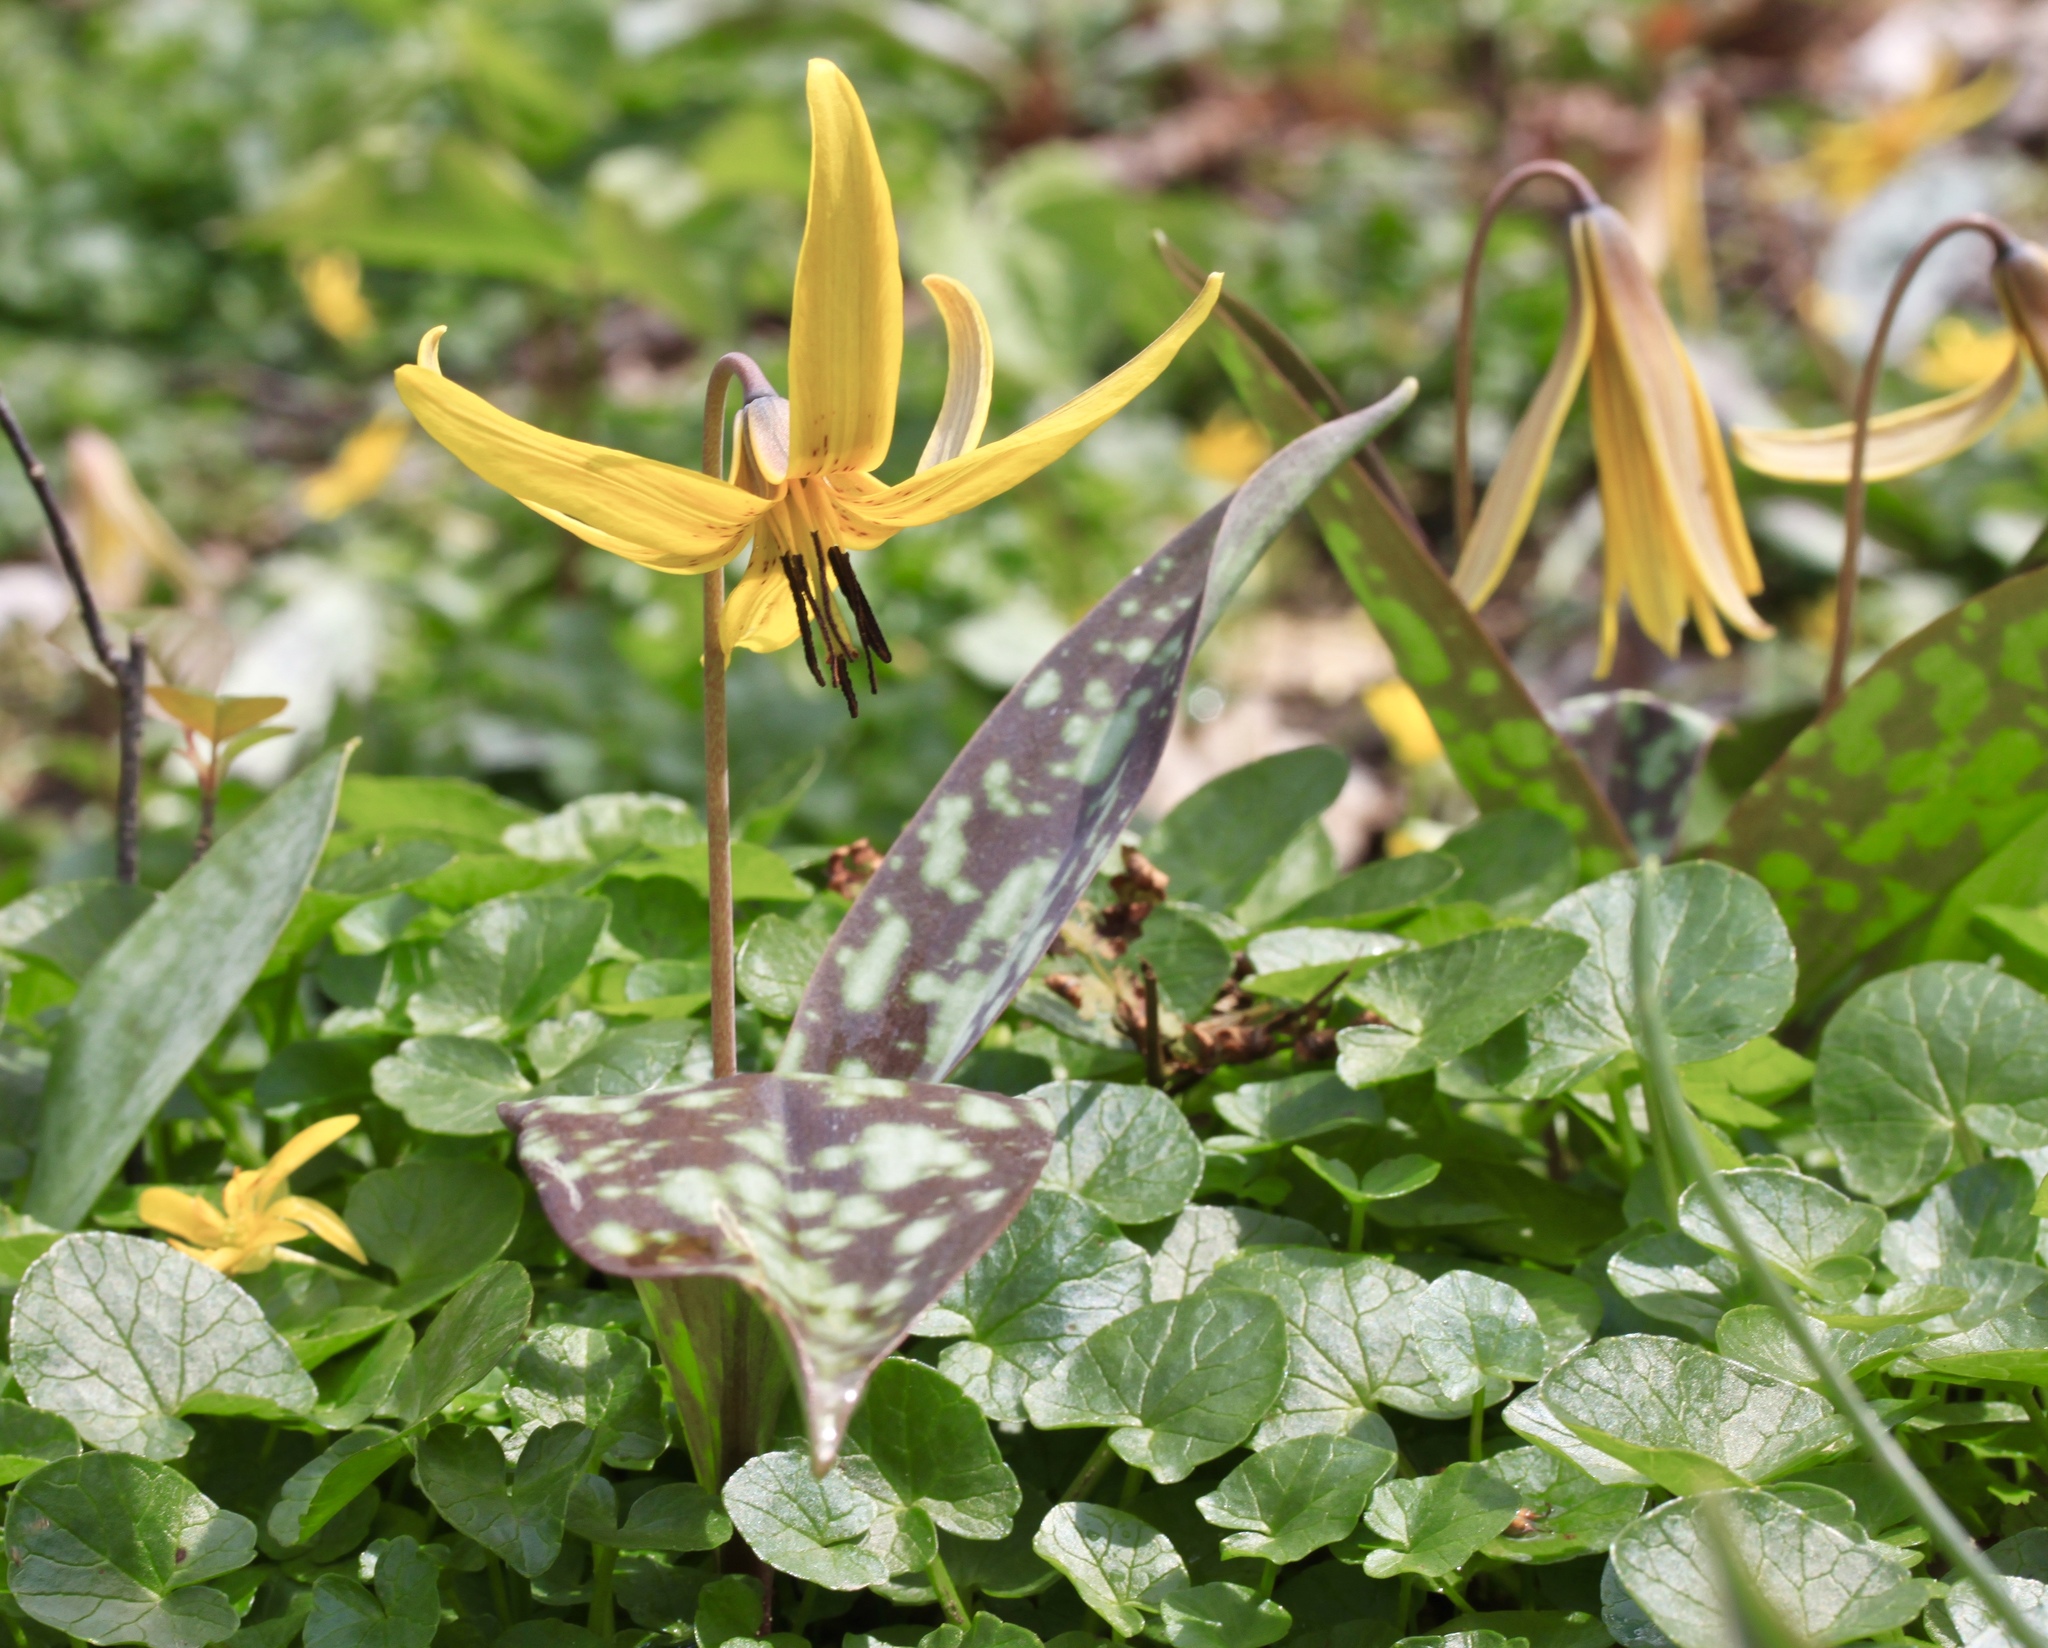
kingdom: Plantae
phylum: Tracheophyta
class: Liliopsida
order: Liliales
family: Liliaceae
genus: Erythronium
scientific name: Erythronium americanum
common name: Yellow adder's-tongue
